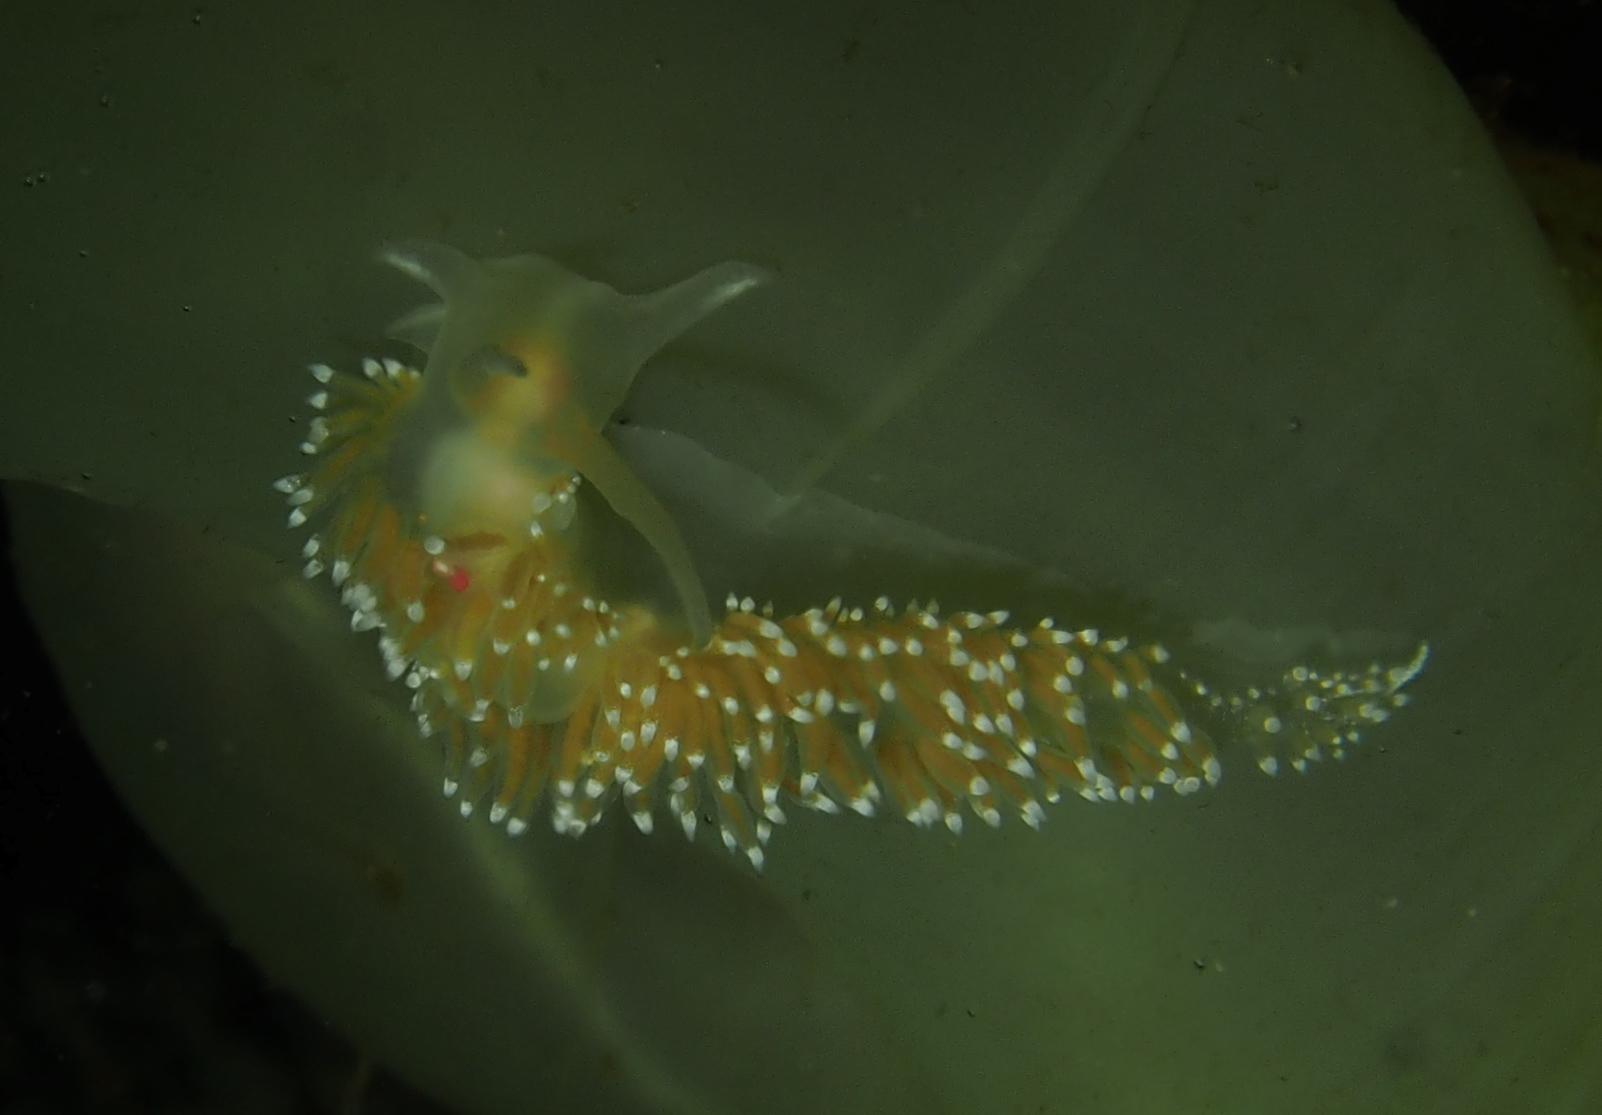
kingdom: Animalia
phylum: Mollusca
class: Gastropoda
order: Nudibranchia
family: Coryphellidae
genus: Coryphella
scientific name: Coryphella verrucosa
